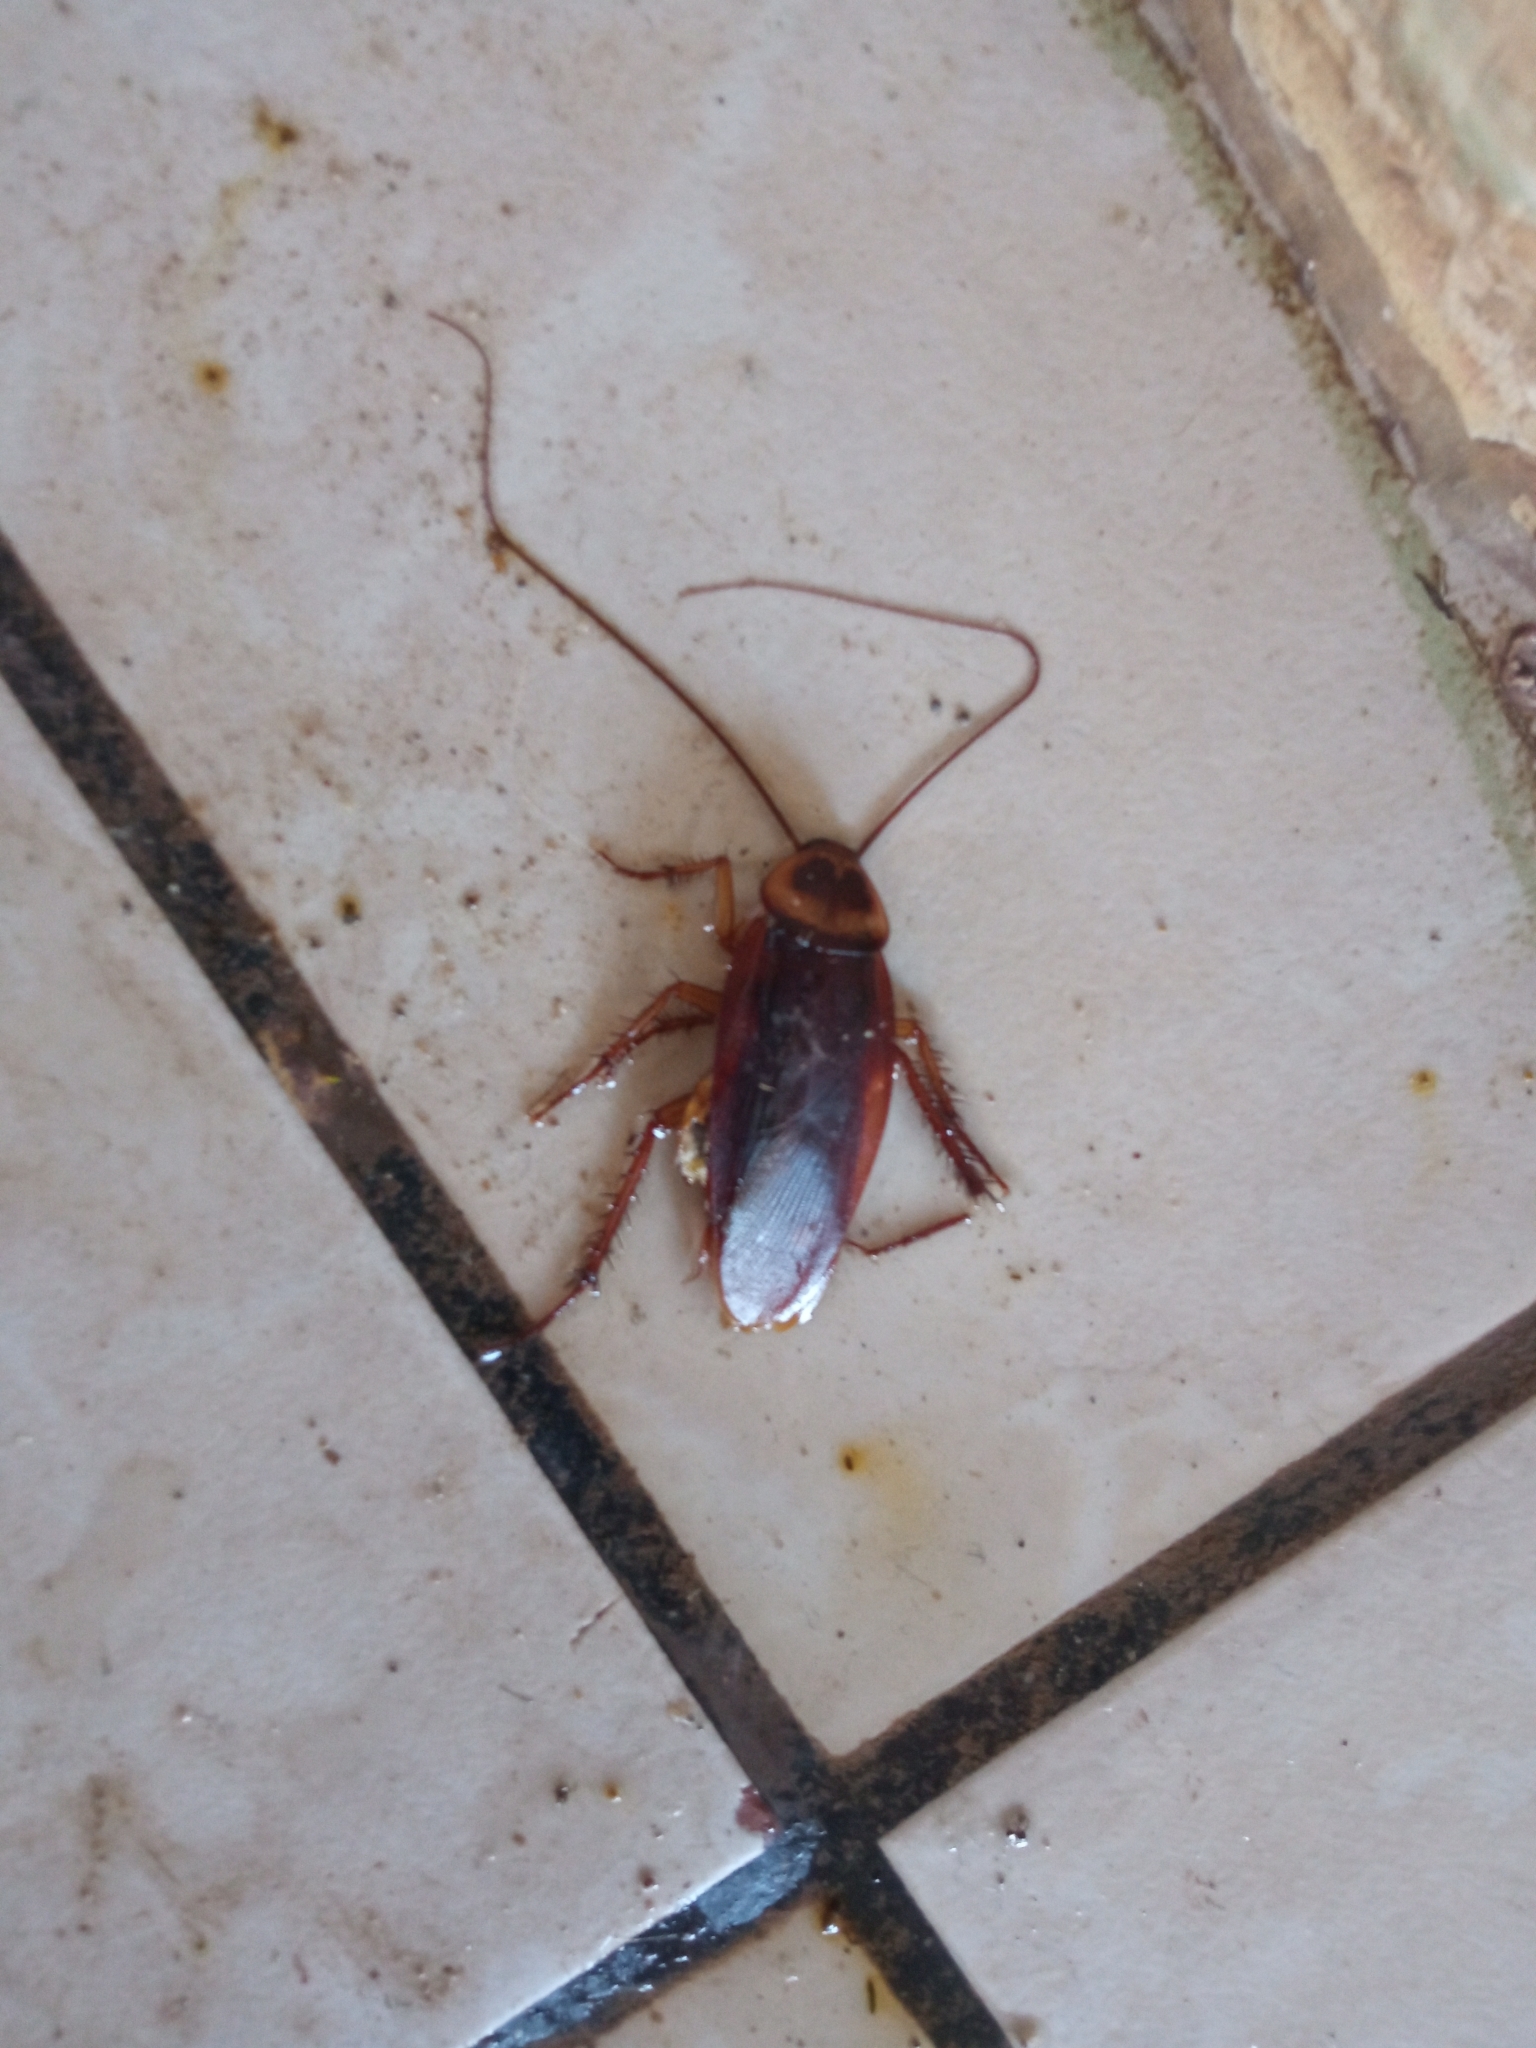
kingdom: Animalia
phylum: Arthropoda
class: Insecta
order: Blattodea
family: Blattidae
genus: Periplaneta
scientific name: Periplaneta americana
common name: American cockroach
